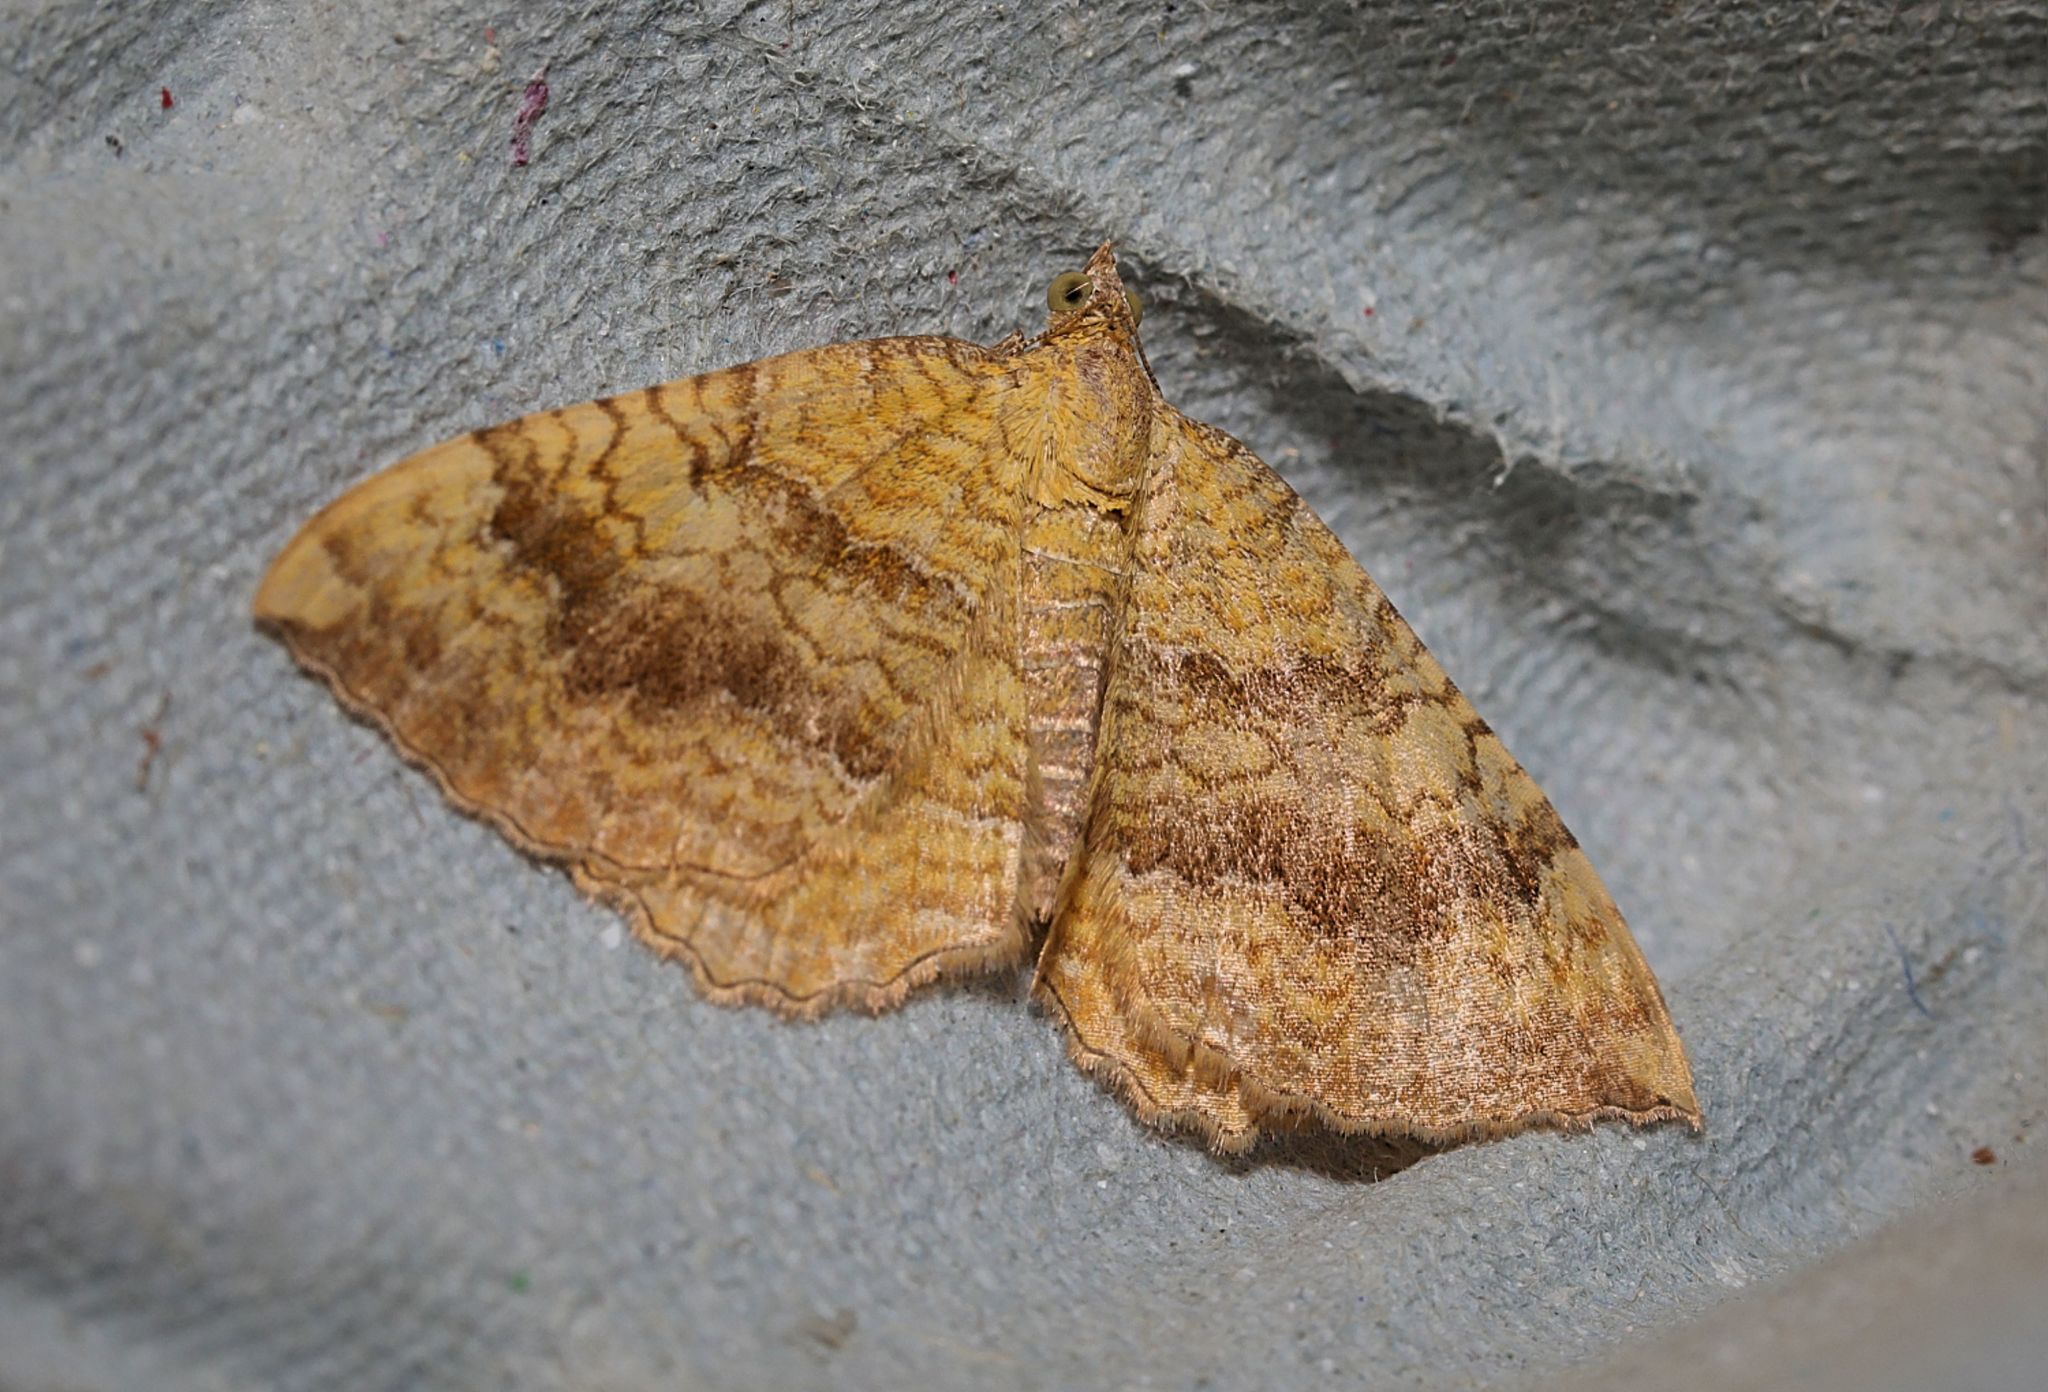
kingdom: Animalia
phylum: Arthropoda
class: Insecta
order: Lepidoptera
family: Geometridae
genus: Camptogramma
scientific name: Camptogramma bilineata
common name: Yellow shell
